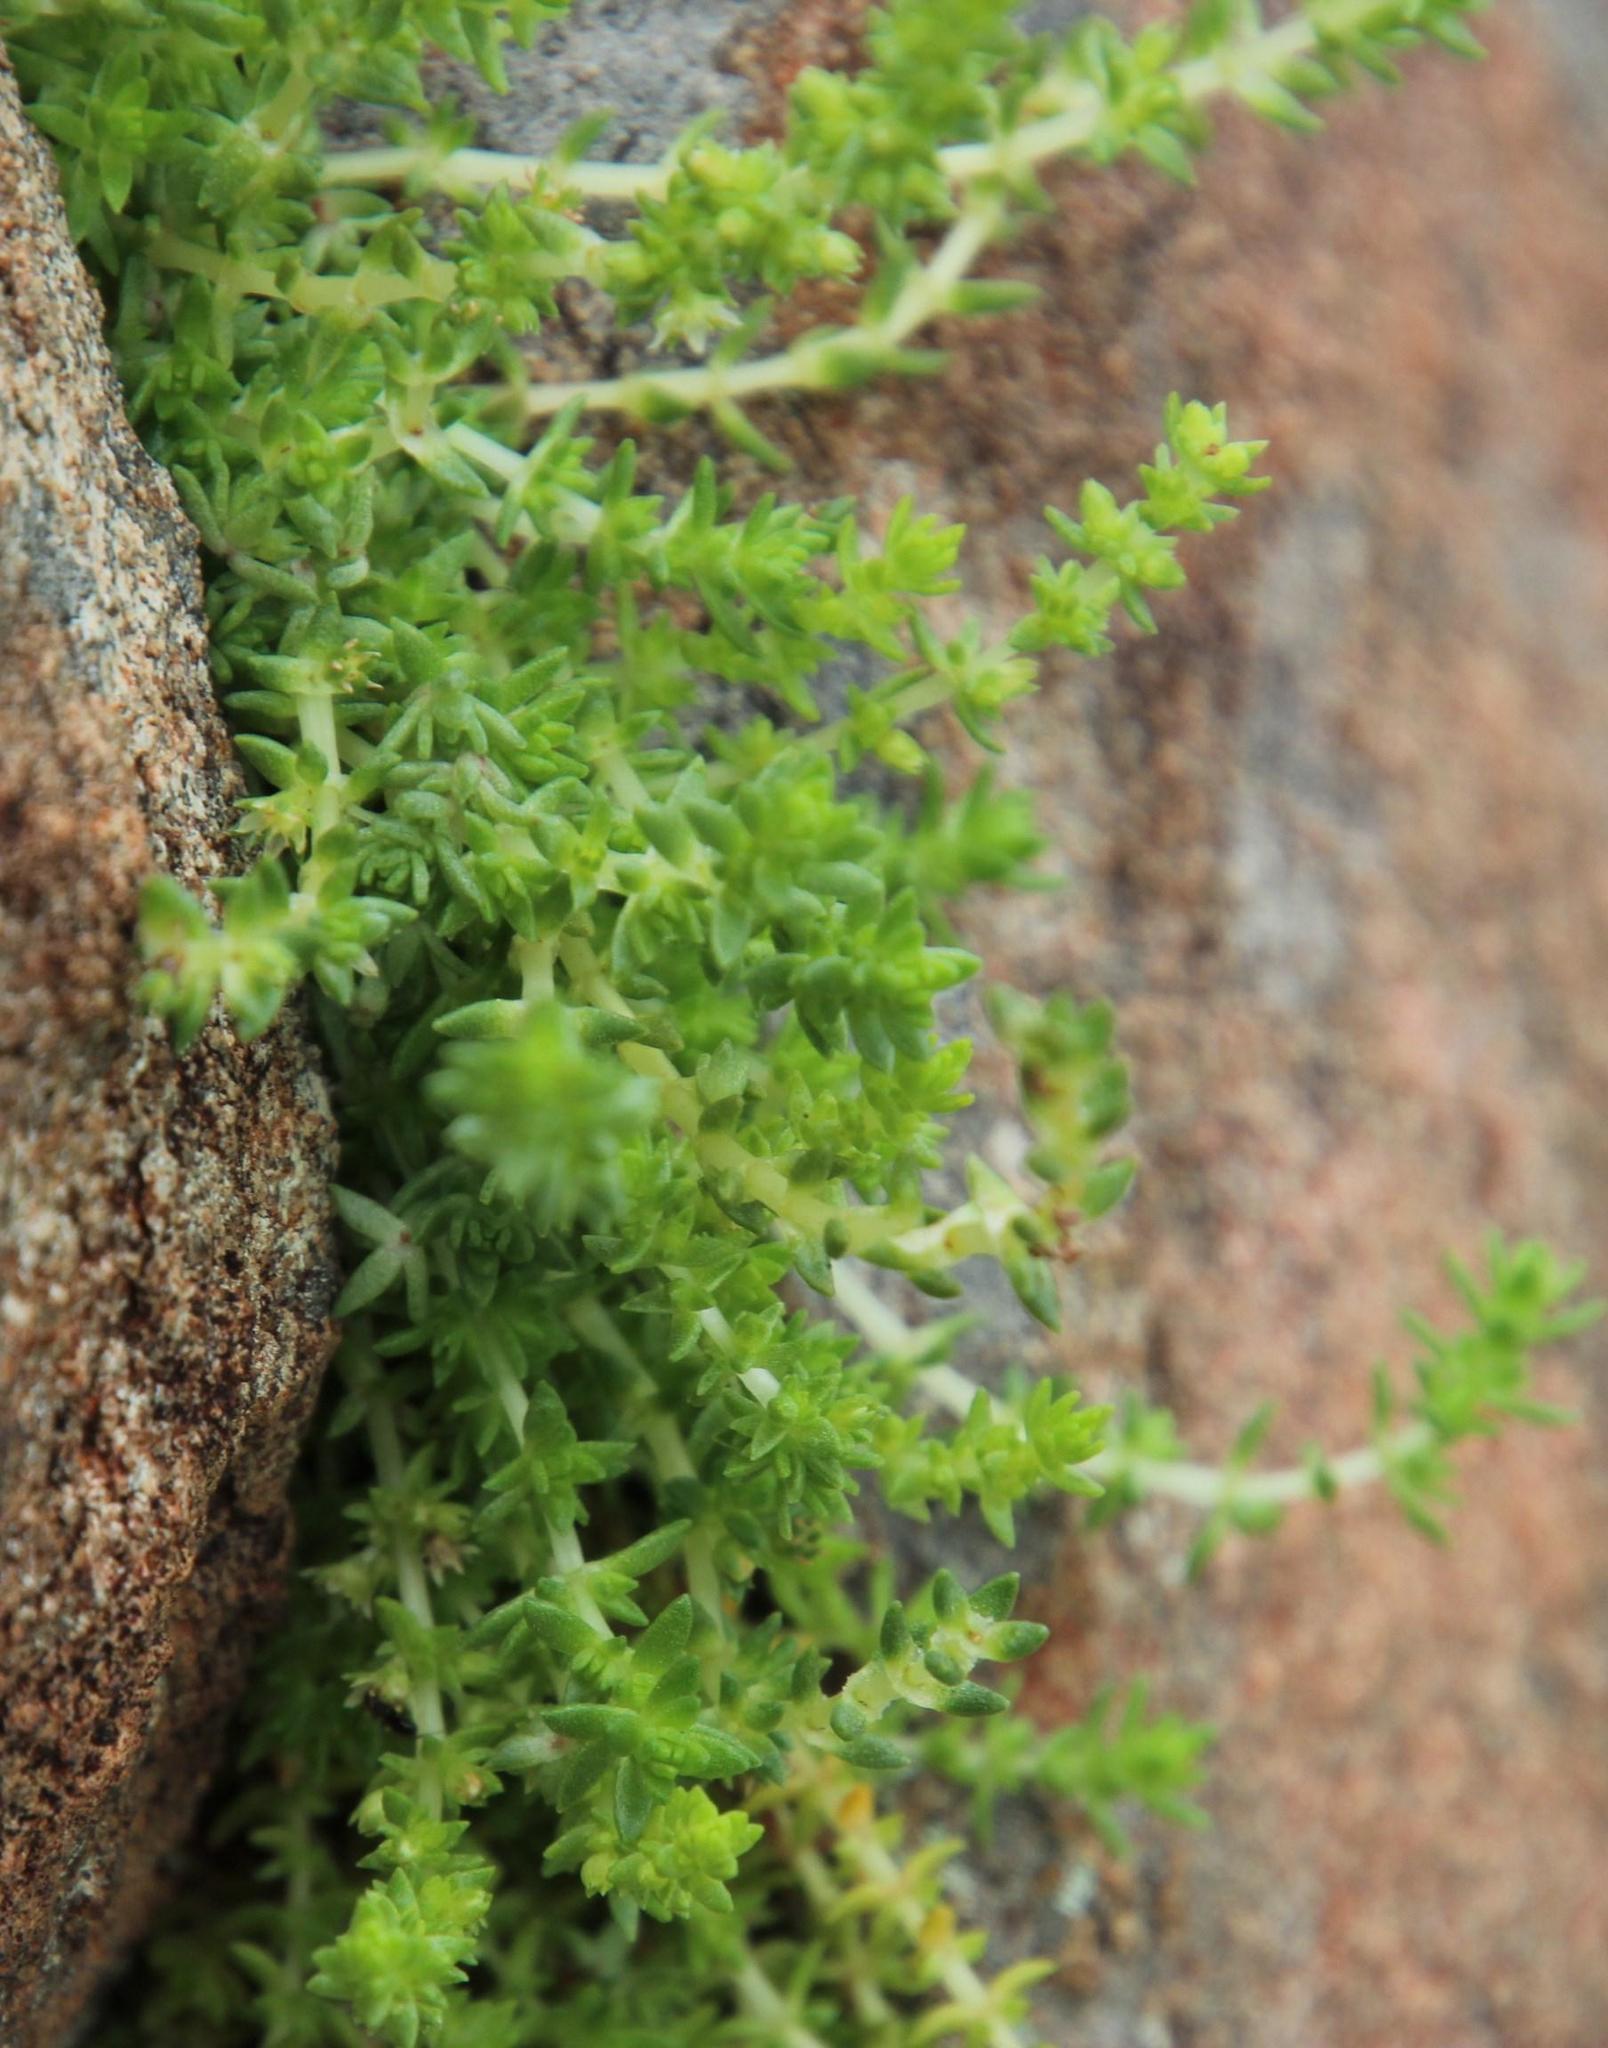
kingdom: Plantae
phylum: Tracheophyta
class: Magnoliopsida
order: Saxifragales
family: Crassulaceae
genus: Crassula
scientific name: Crassula lanceolata
